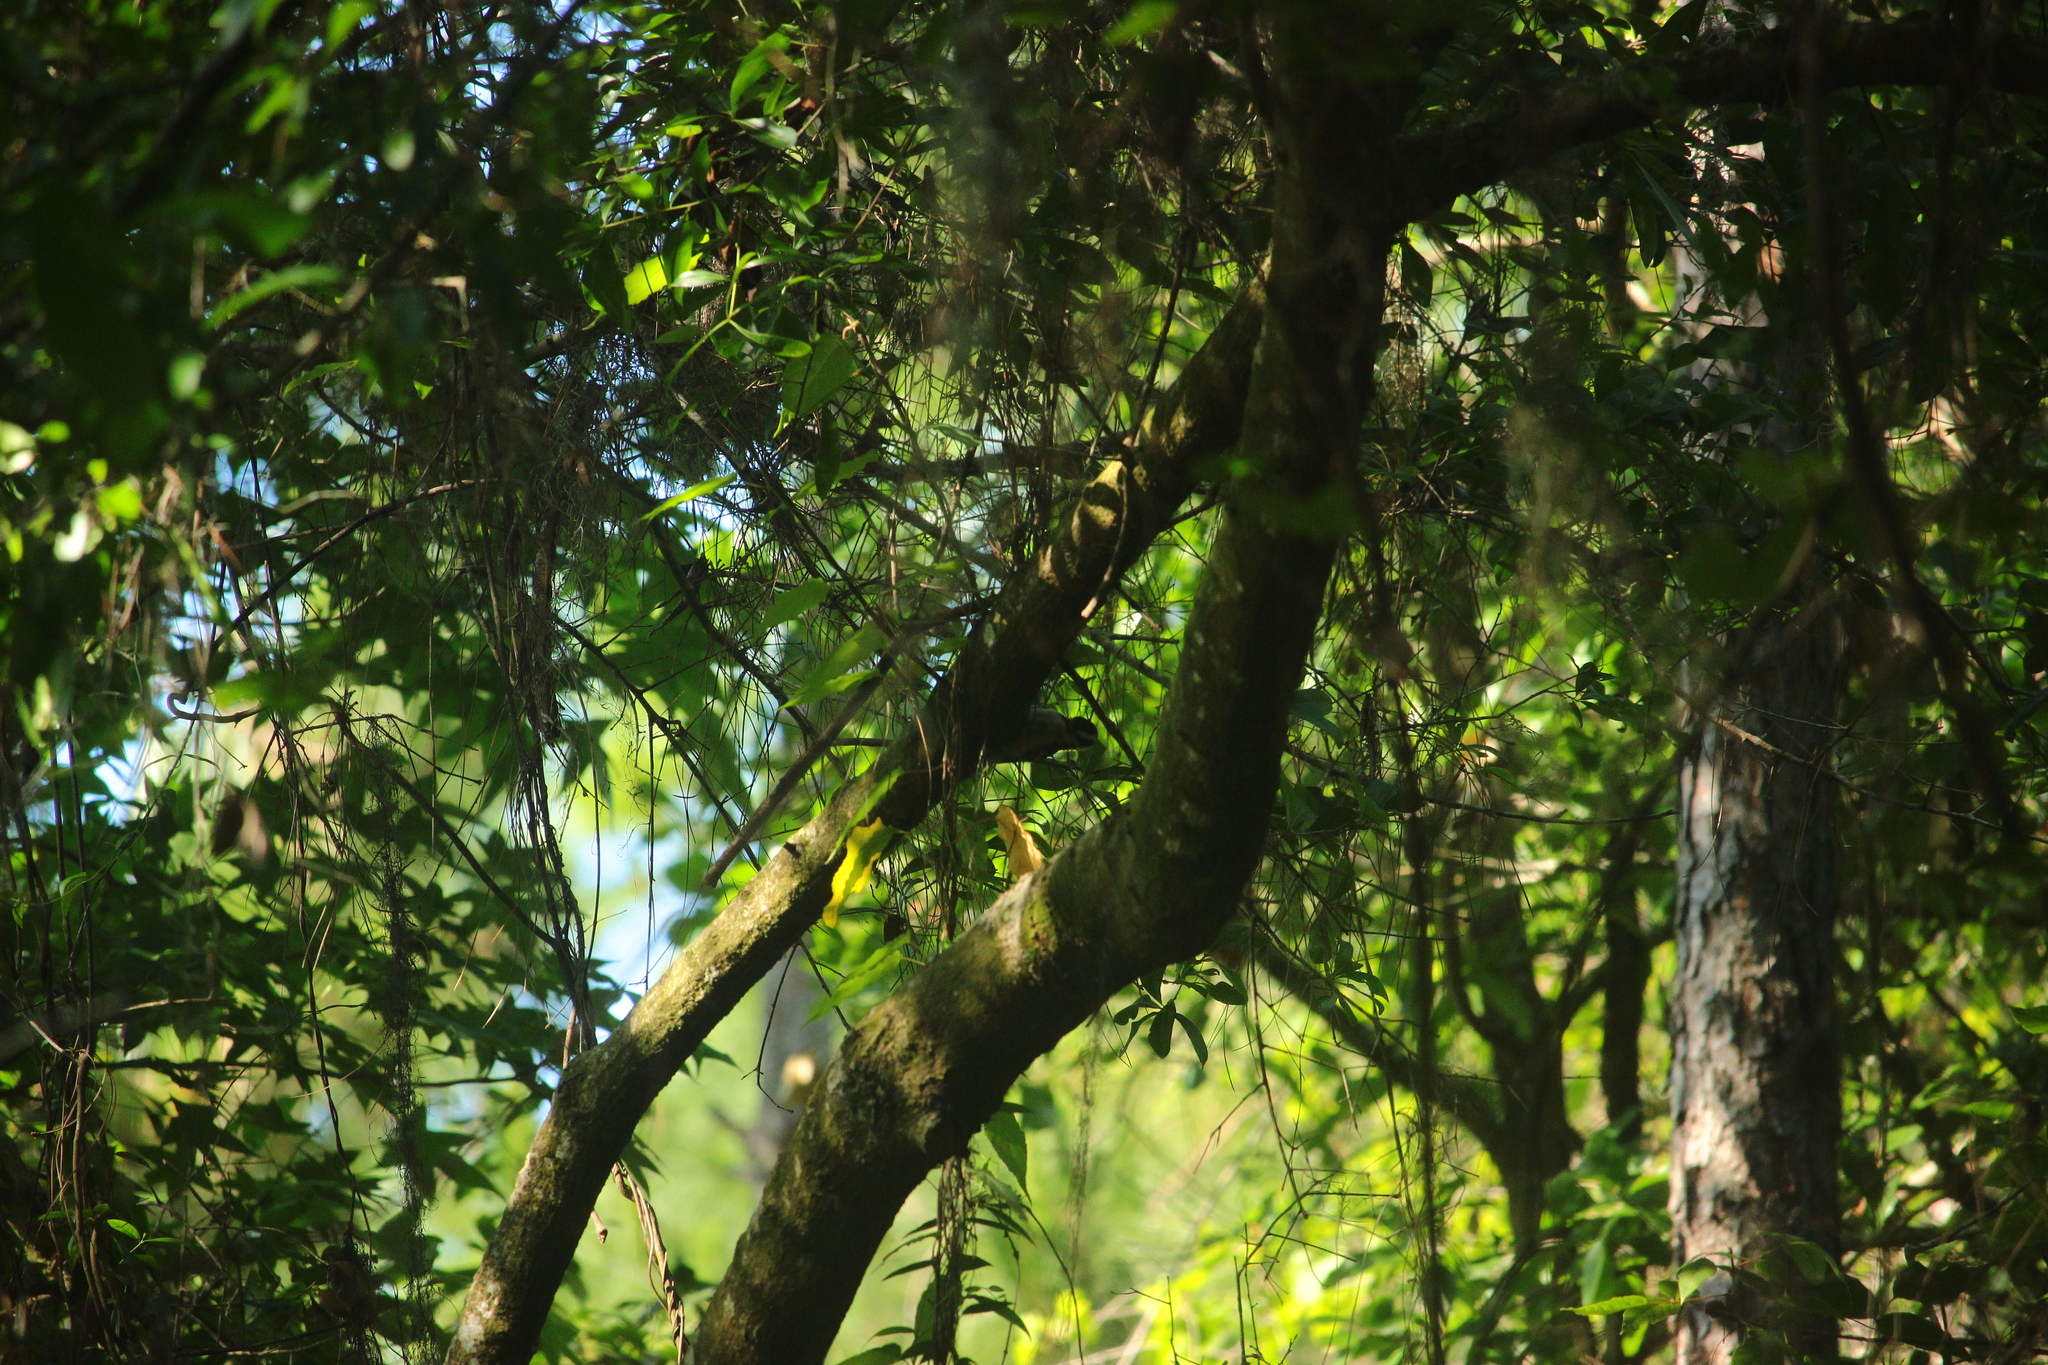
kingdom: Animalia
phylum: Chordata
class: Aves
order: Piciformes
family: Picidae
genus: Dryobates
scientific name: Dryobates pubescens
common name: Downy woodpecker
